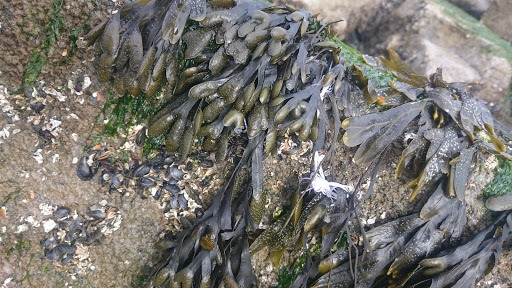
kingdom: Chromista
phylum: Ochrophyta
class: Phaeophyceae
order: Fucales
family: Fucaceae
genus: Fucus
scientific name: Fucus vesiculosus
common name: Bladder wrack
